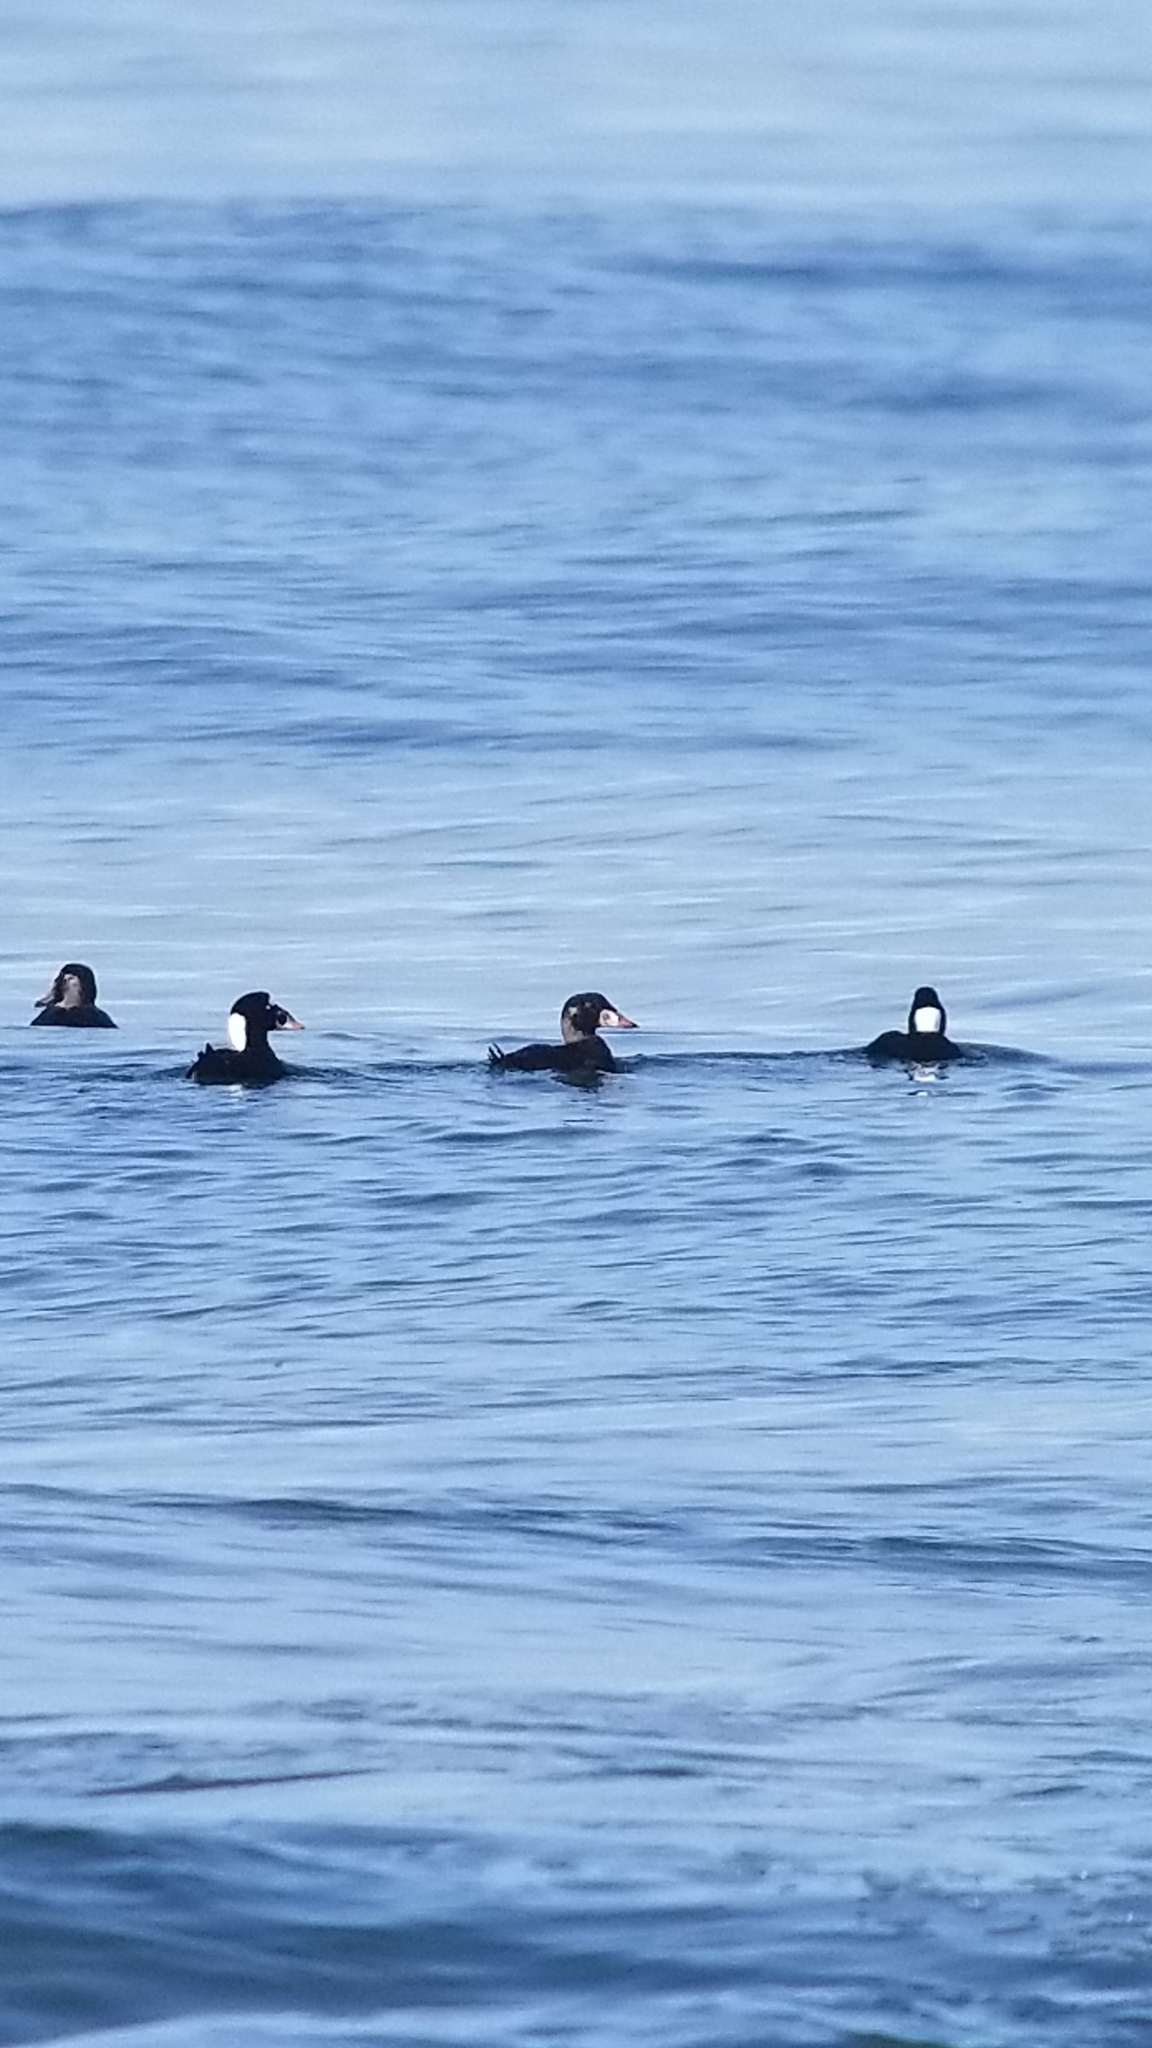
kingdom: Animalia
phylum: Chordata
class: Aves
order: Anseriformes
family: Anatidae
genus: Melanitta
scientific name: Melanitta perspicillata
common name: Surf scoter
